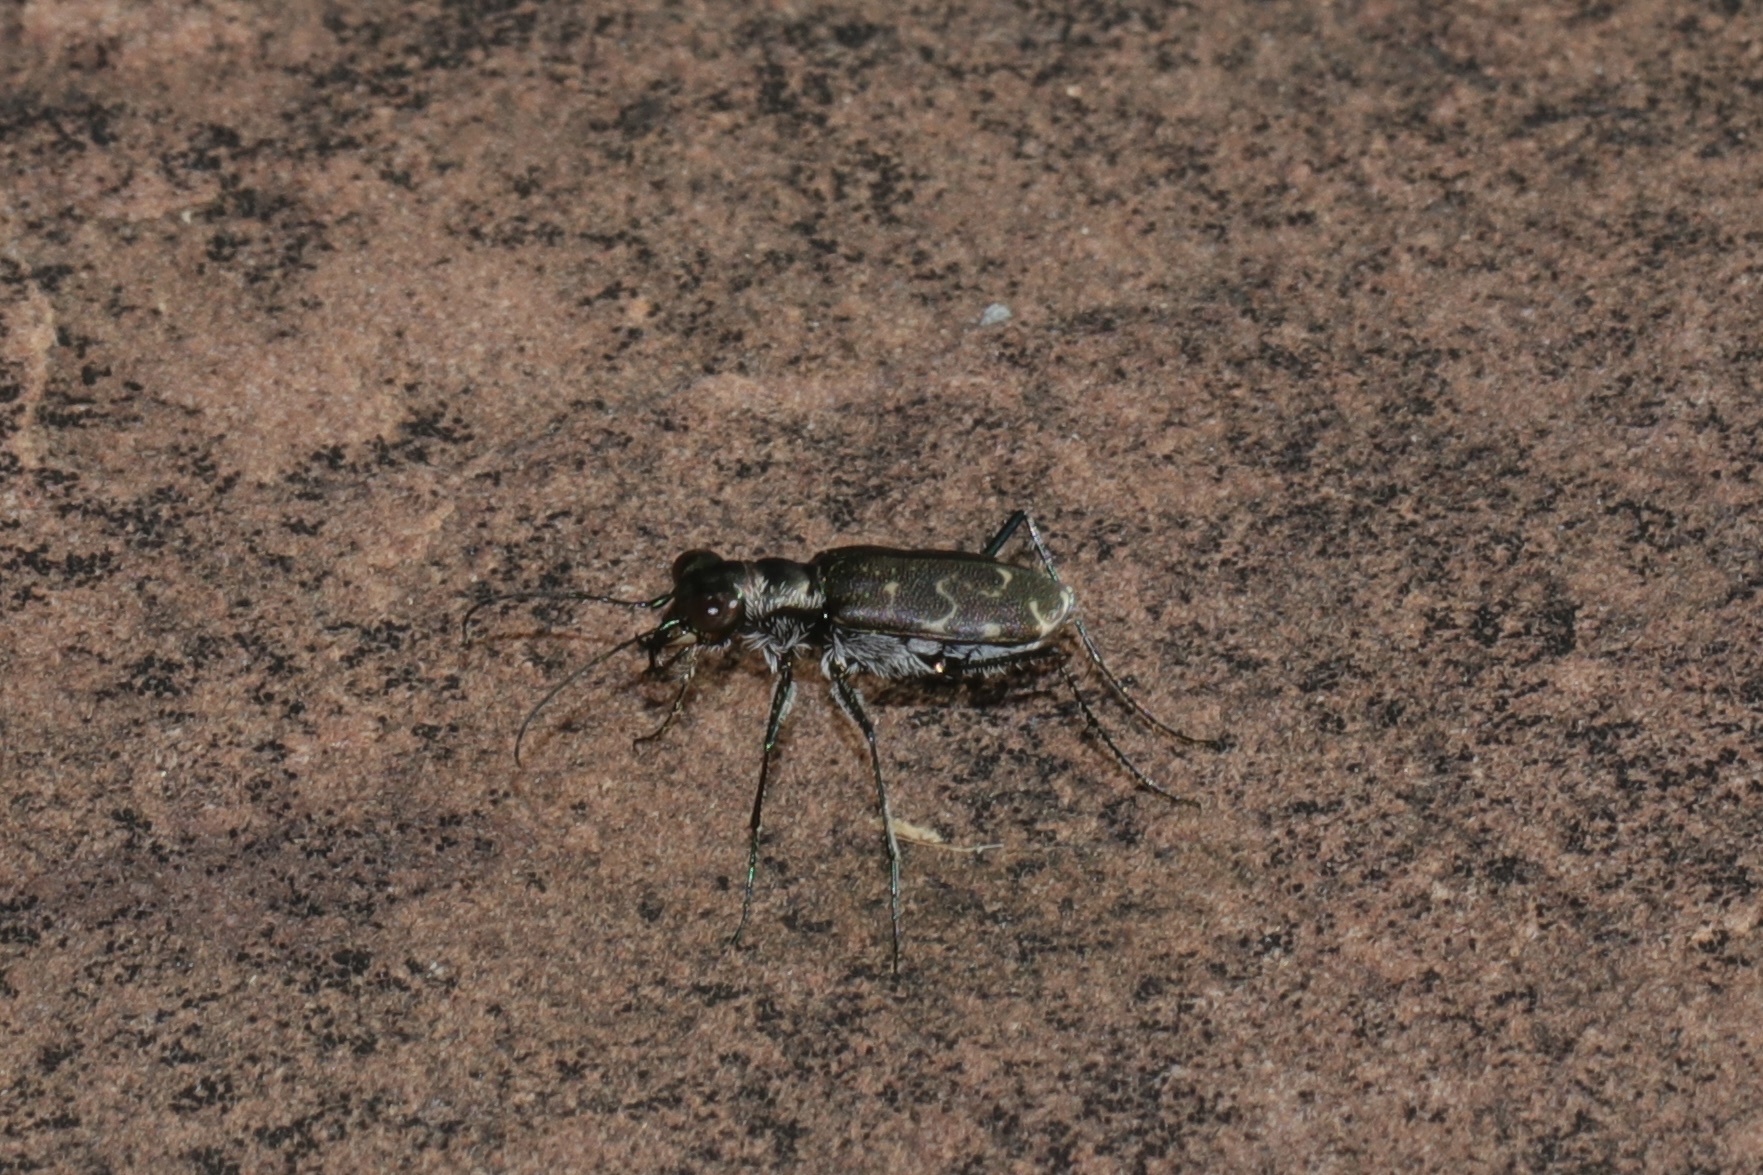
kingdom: Animalia
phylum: Arthropoda
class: Insecta
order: Coleoptera
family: Carabidae
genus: Cicindela
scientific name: Cicindela trifasciata
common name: Mudflat tiger beetle
